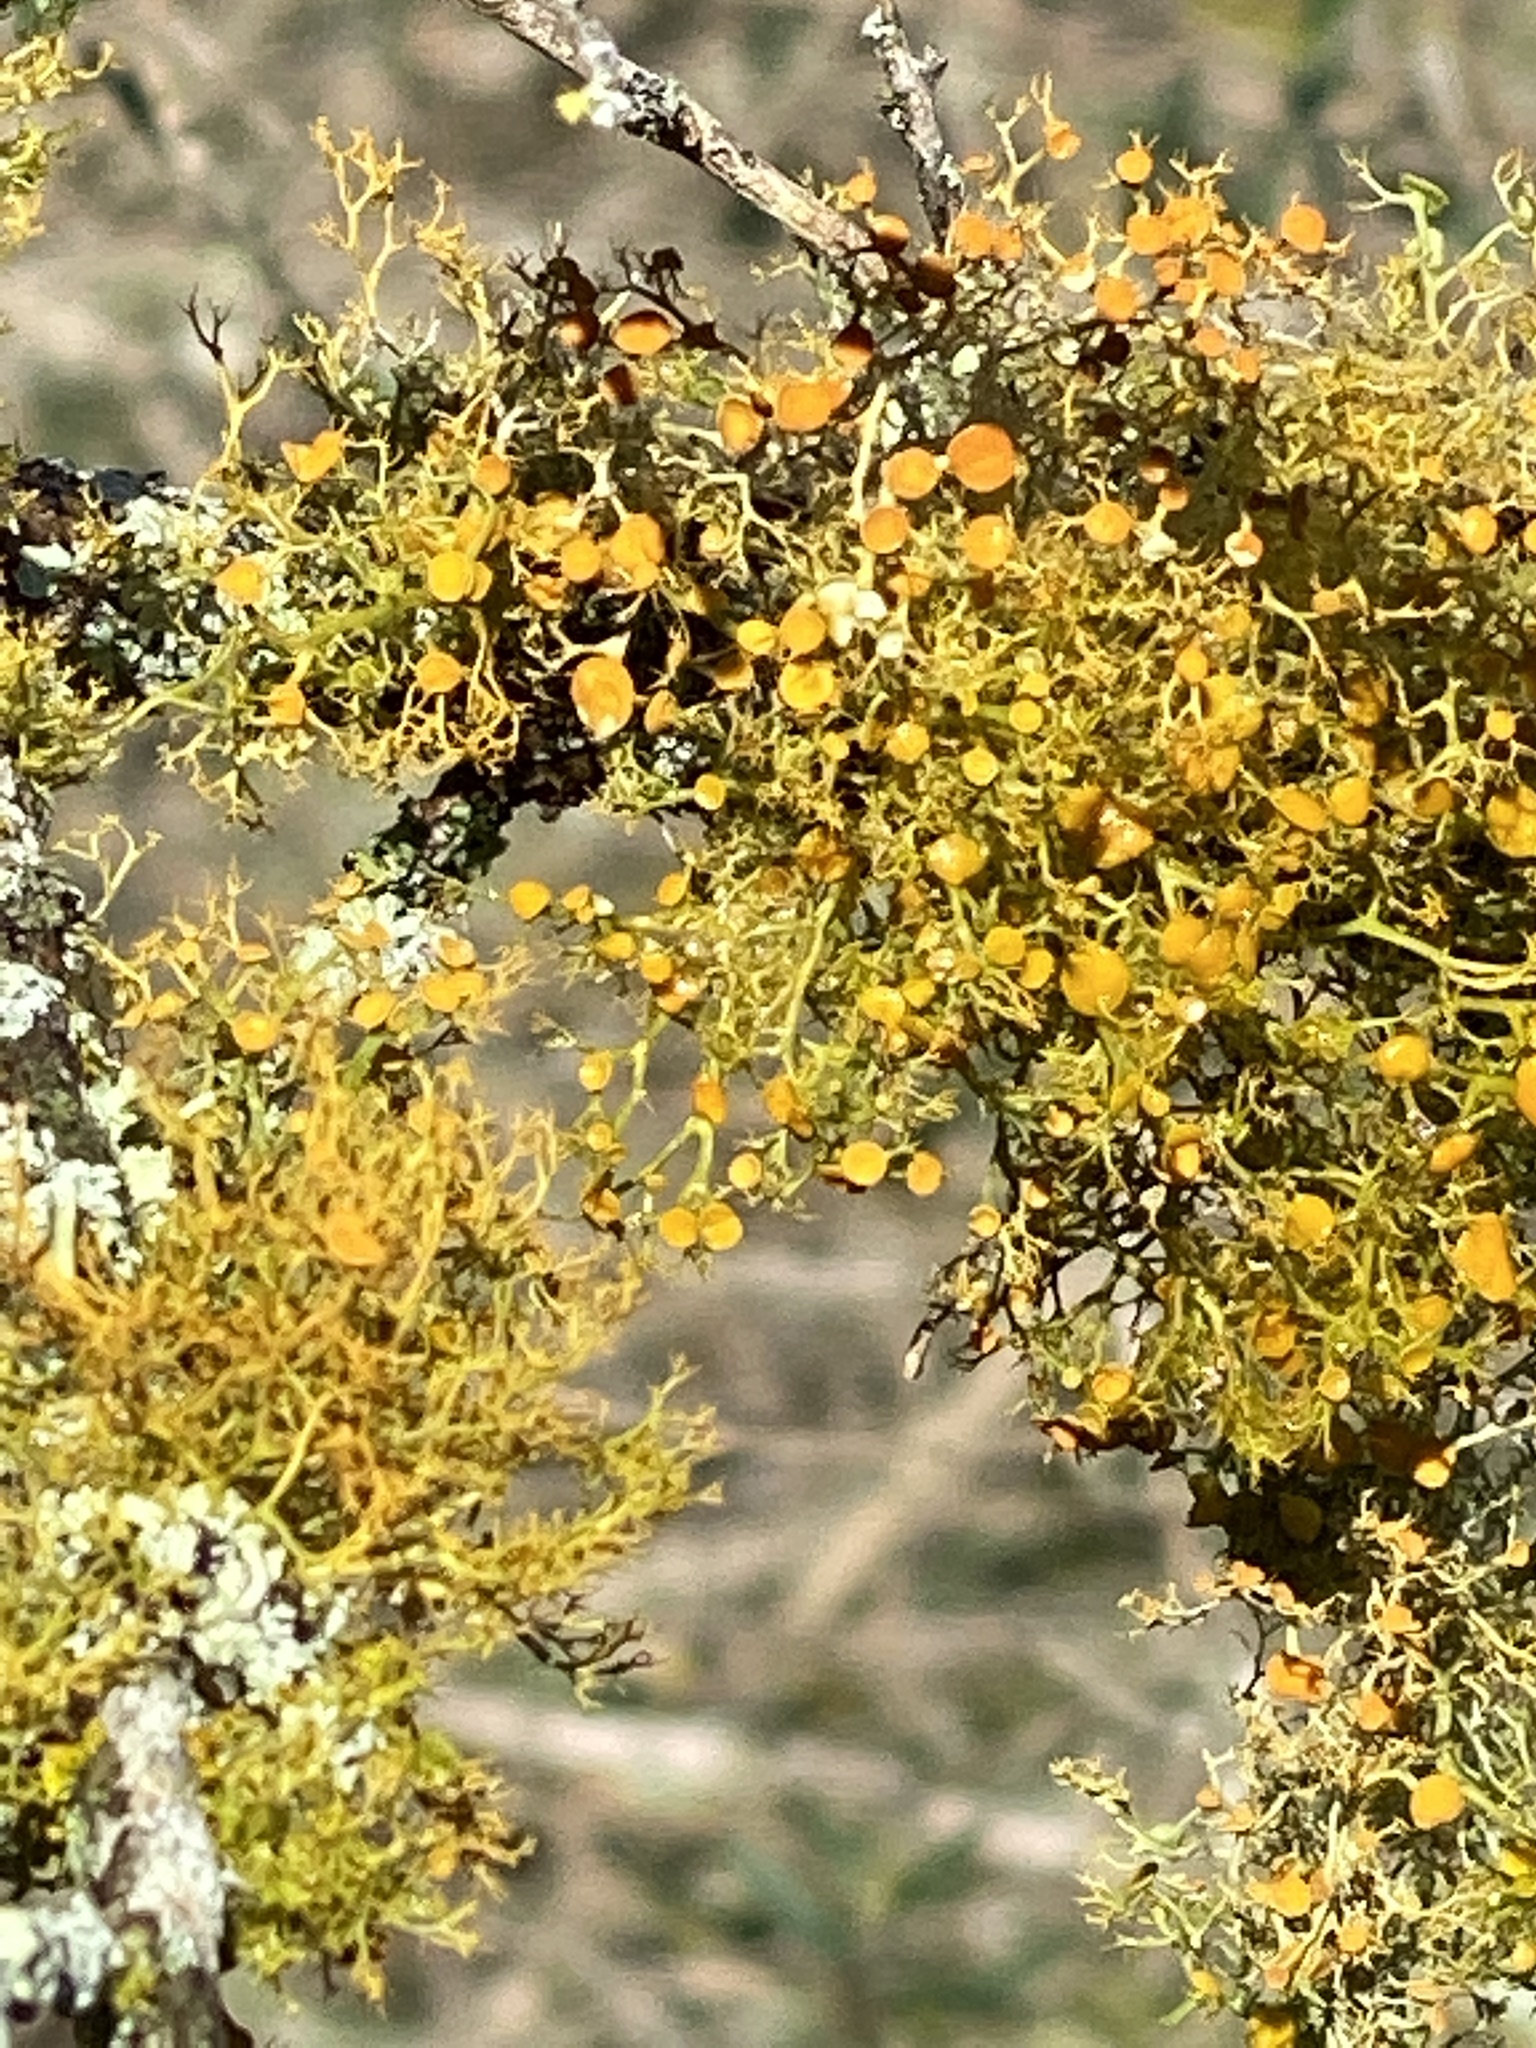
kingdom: Fungi
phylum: Ascomycota
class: Lecanoromycetes
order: Teloschistales
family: Teloschistaceae
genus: Teloschistes
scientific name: Teloschistes exilis
